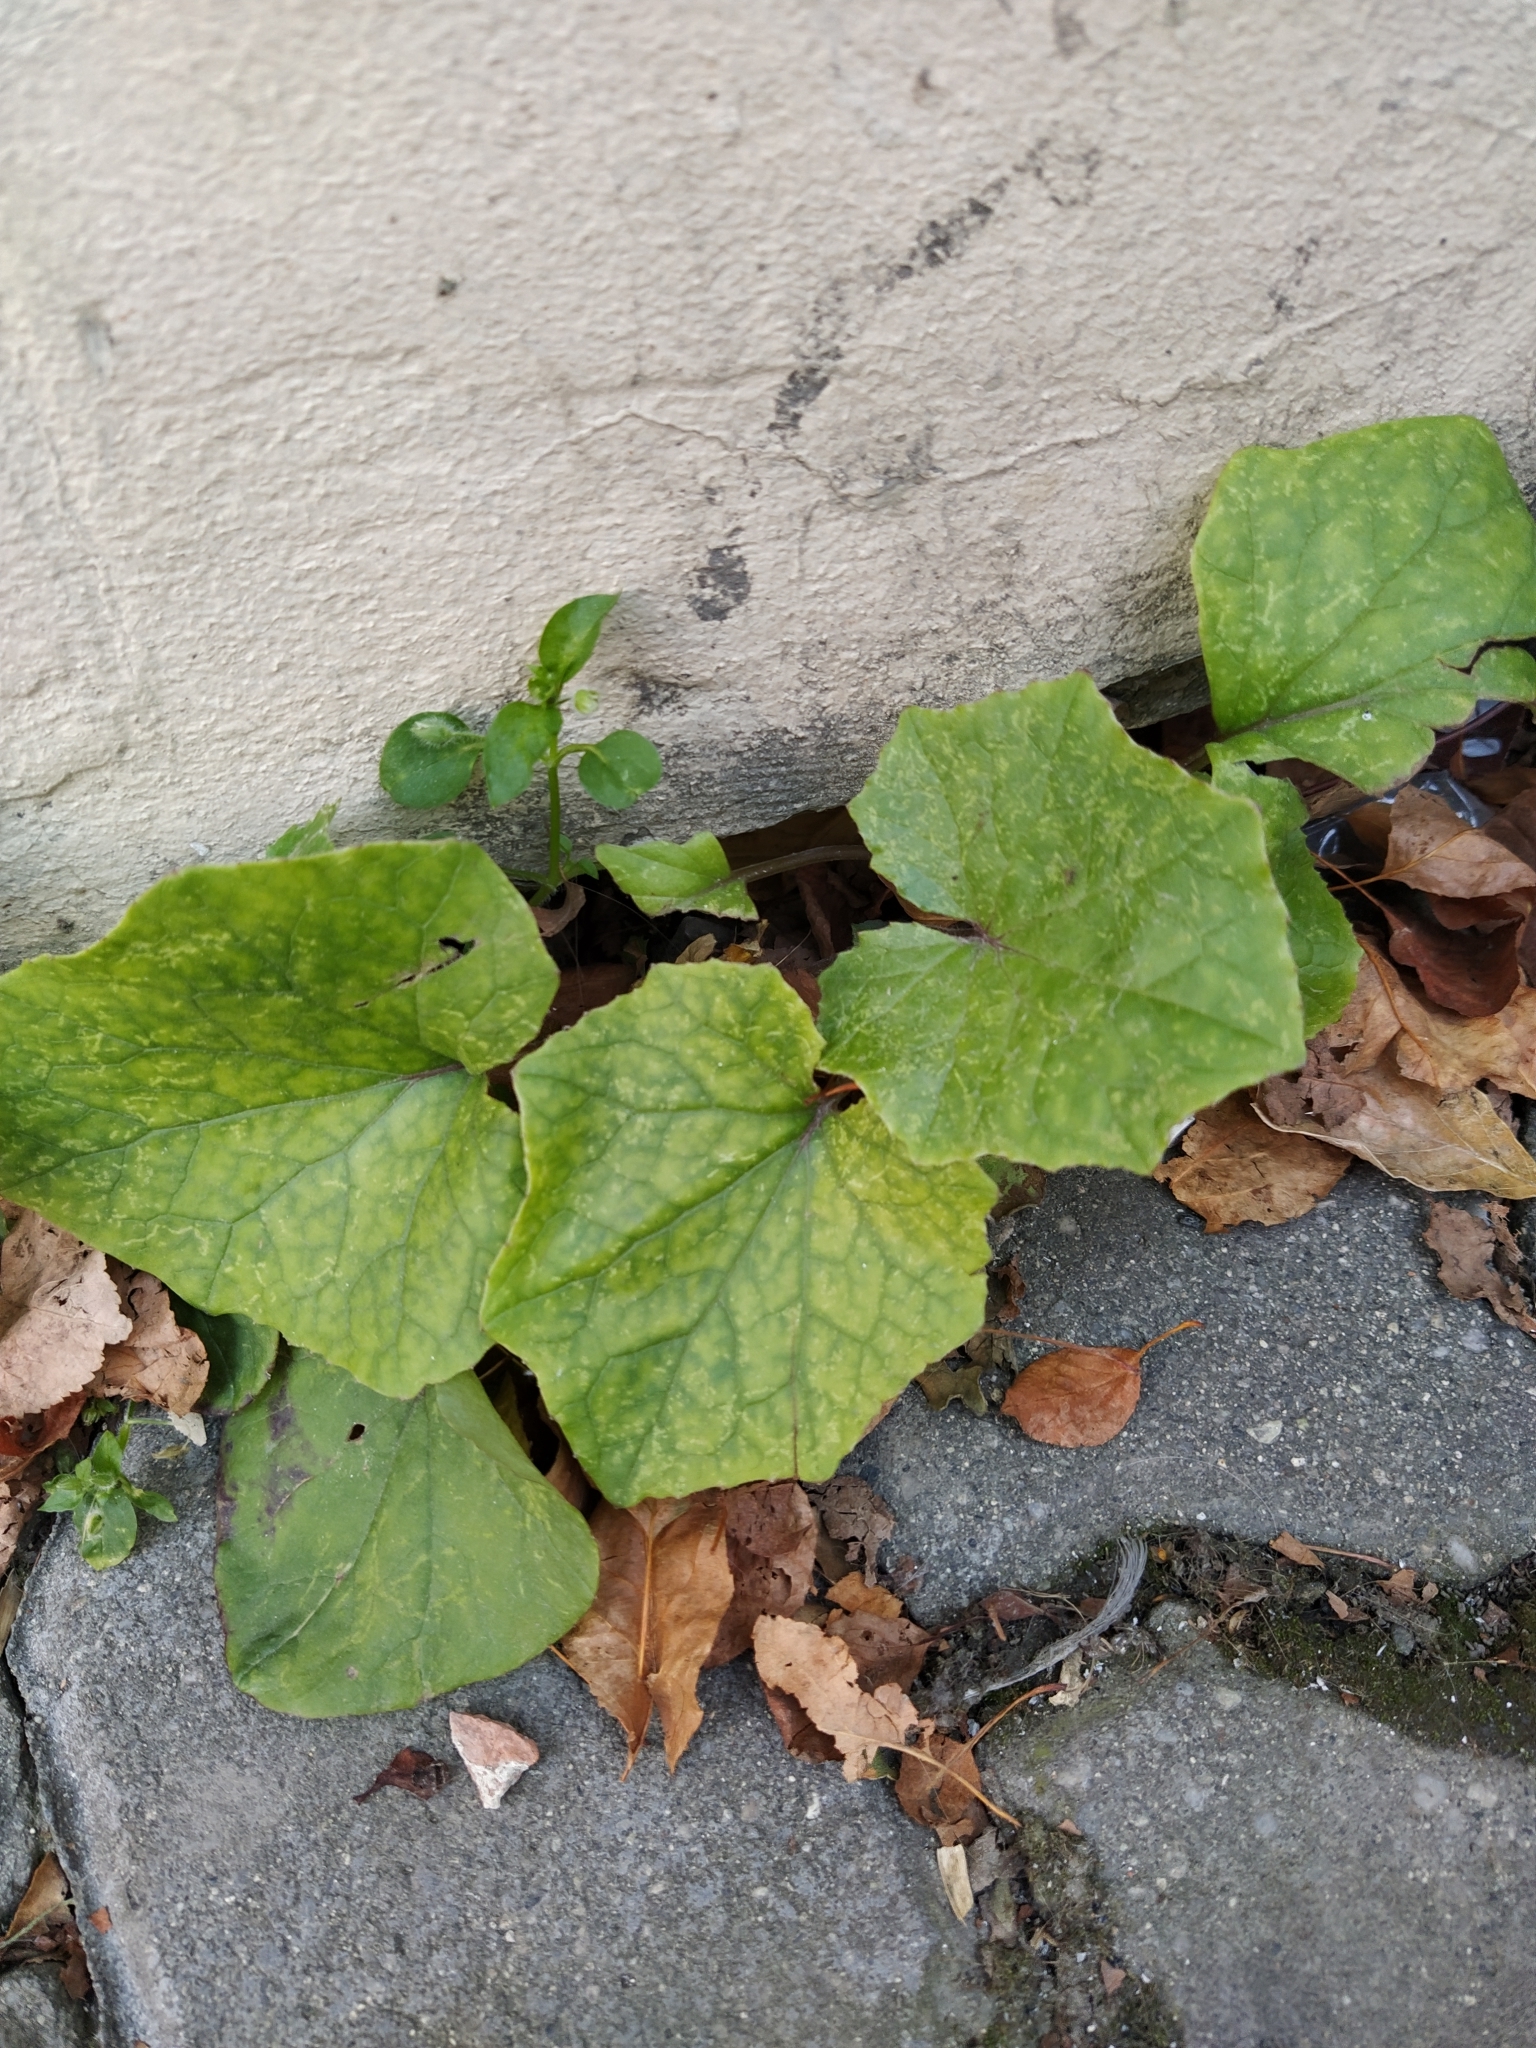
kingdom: Plantae
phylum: Tracheophyta
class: Magnoliopsida
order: Asterales
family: Asteraceae
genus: Tussilago
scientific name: Tussilago farfara
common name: Coltsfoot
